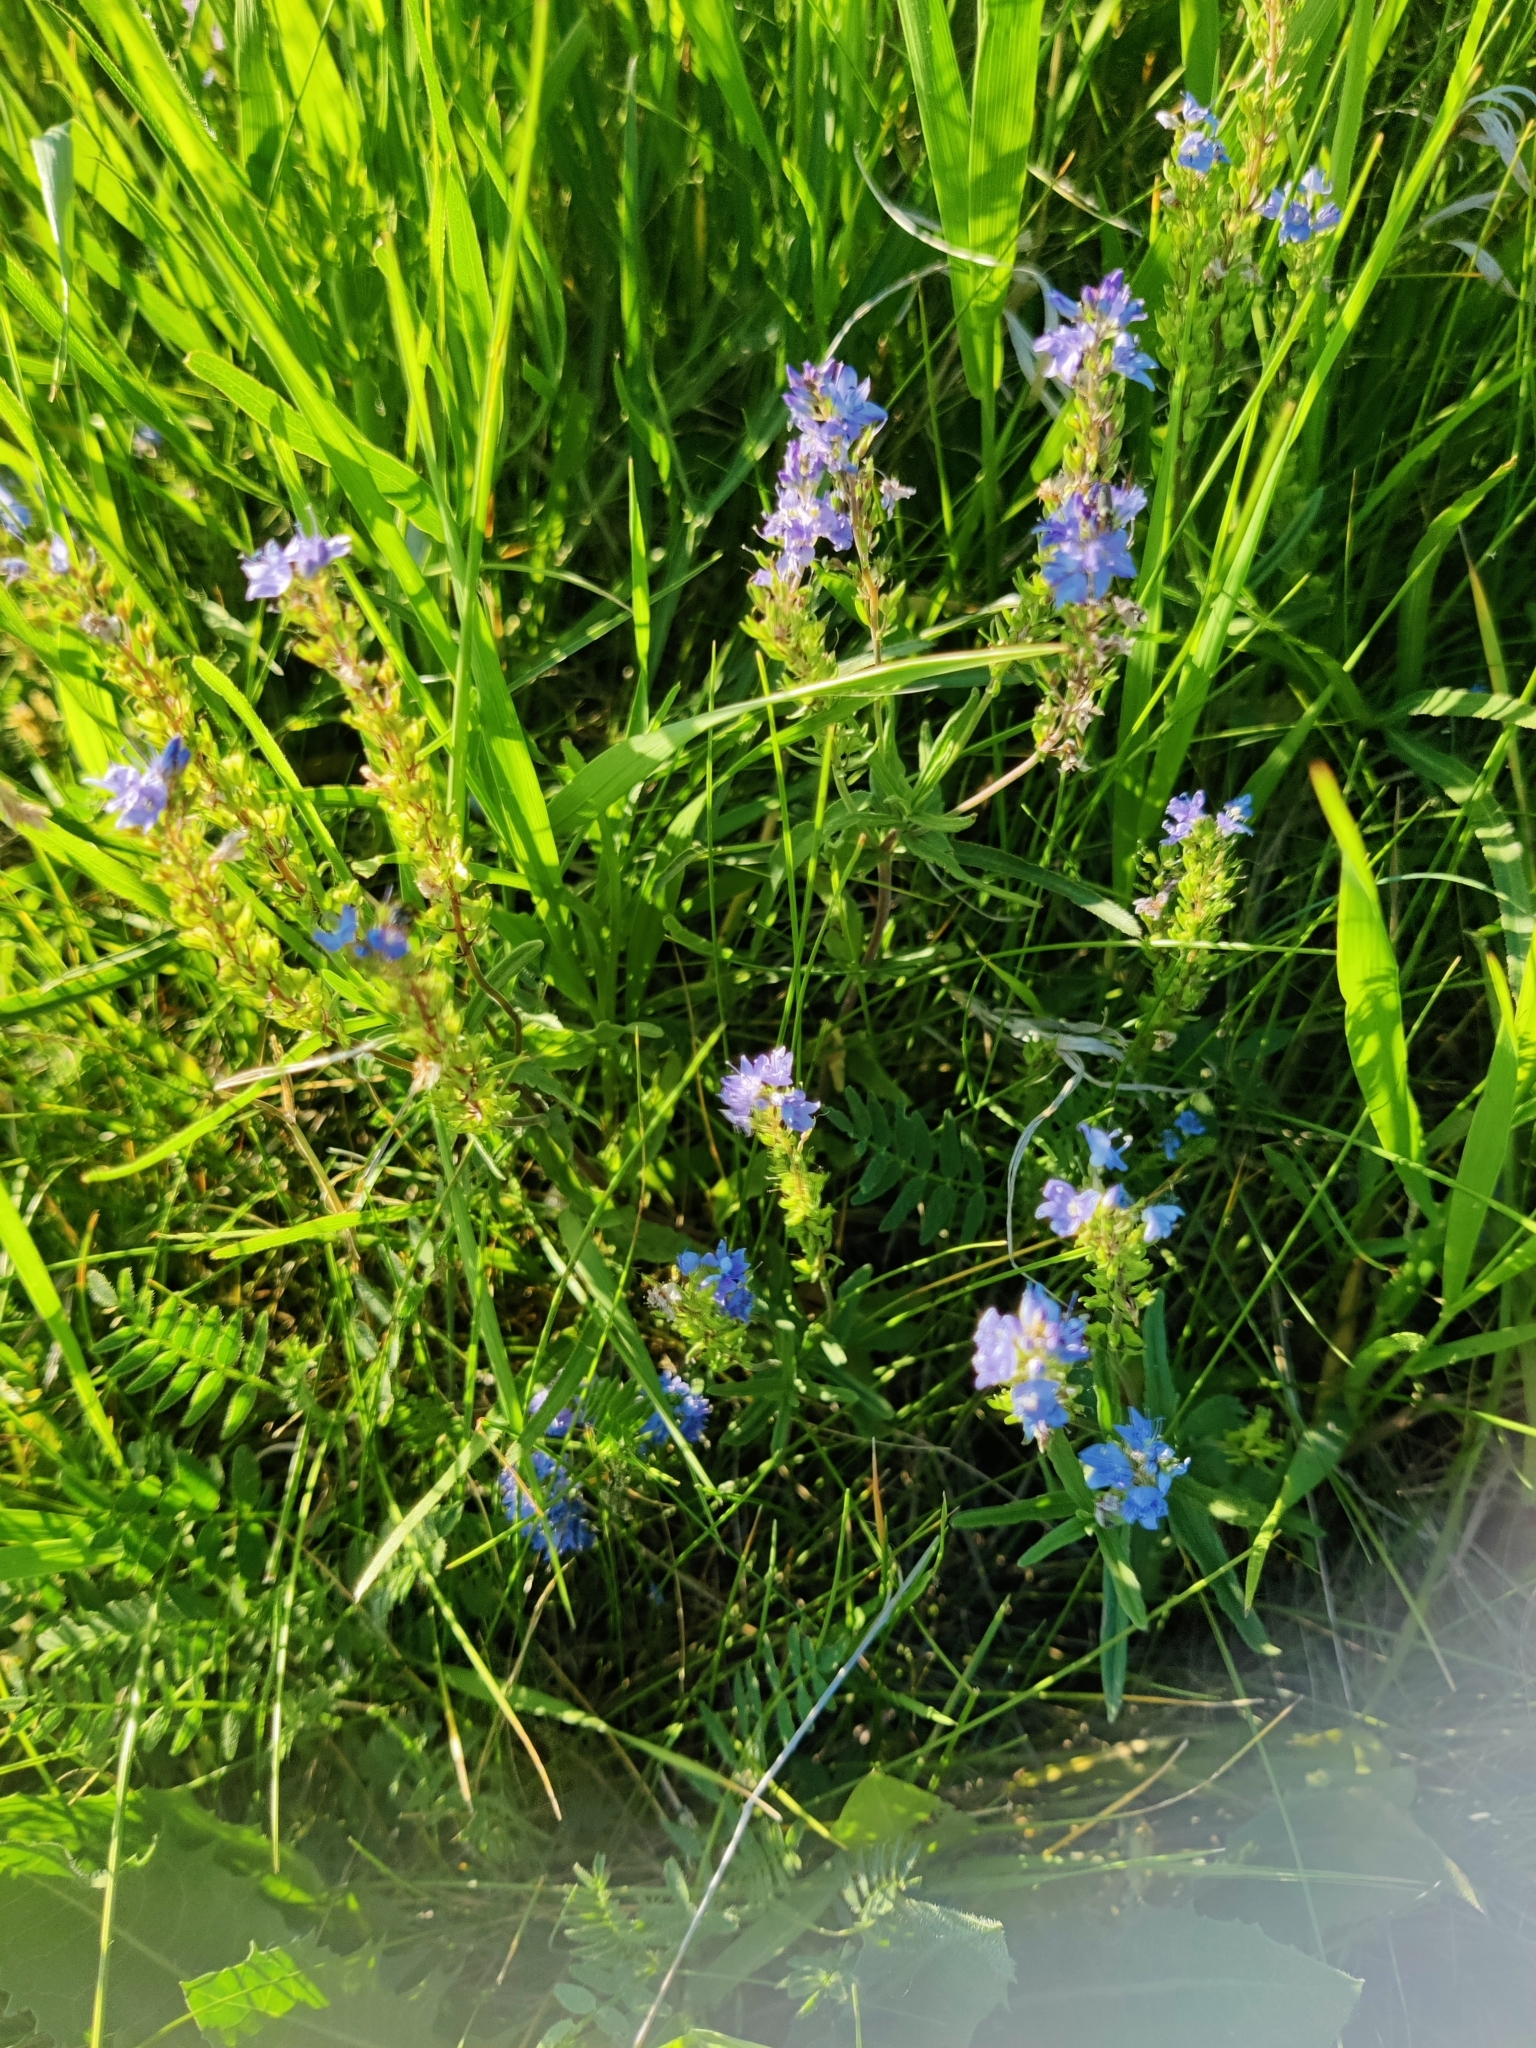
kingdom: Plantae
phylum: Tracheophyta
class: Magnoliopsida
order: Lamiales
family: Plantaginaceae
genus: Veronica
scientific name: Veronica prostrata
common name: Prostrate speedwell
